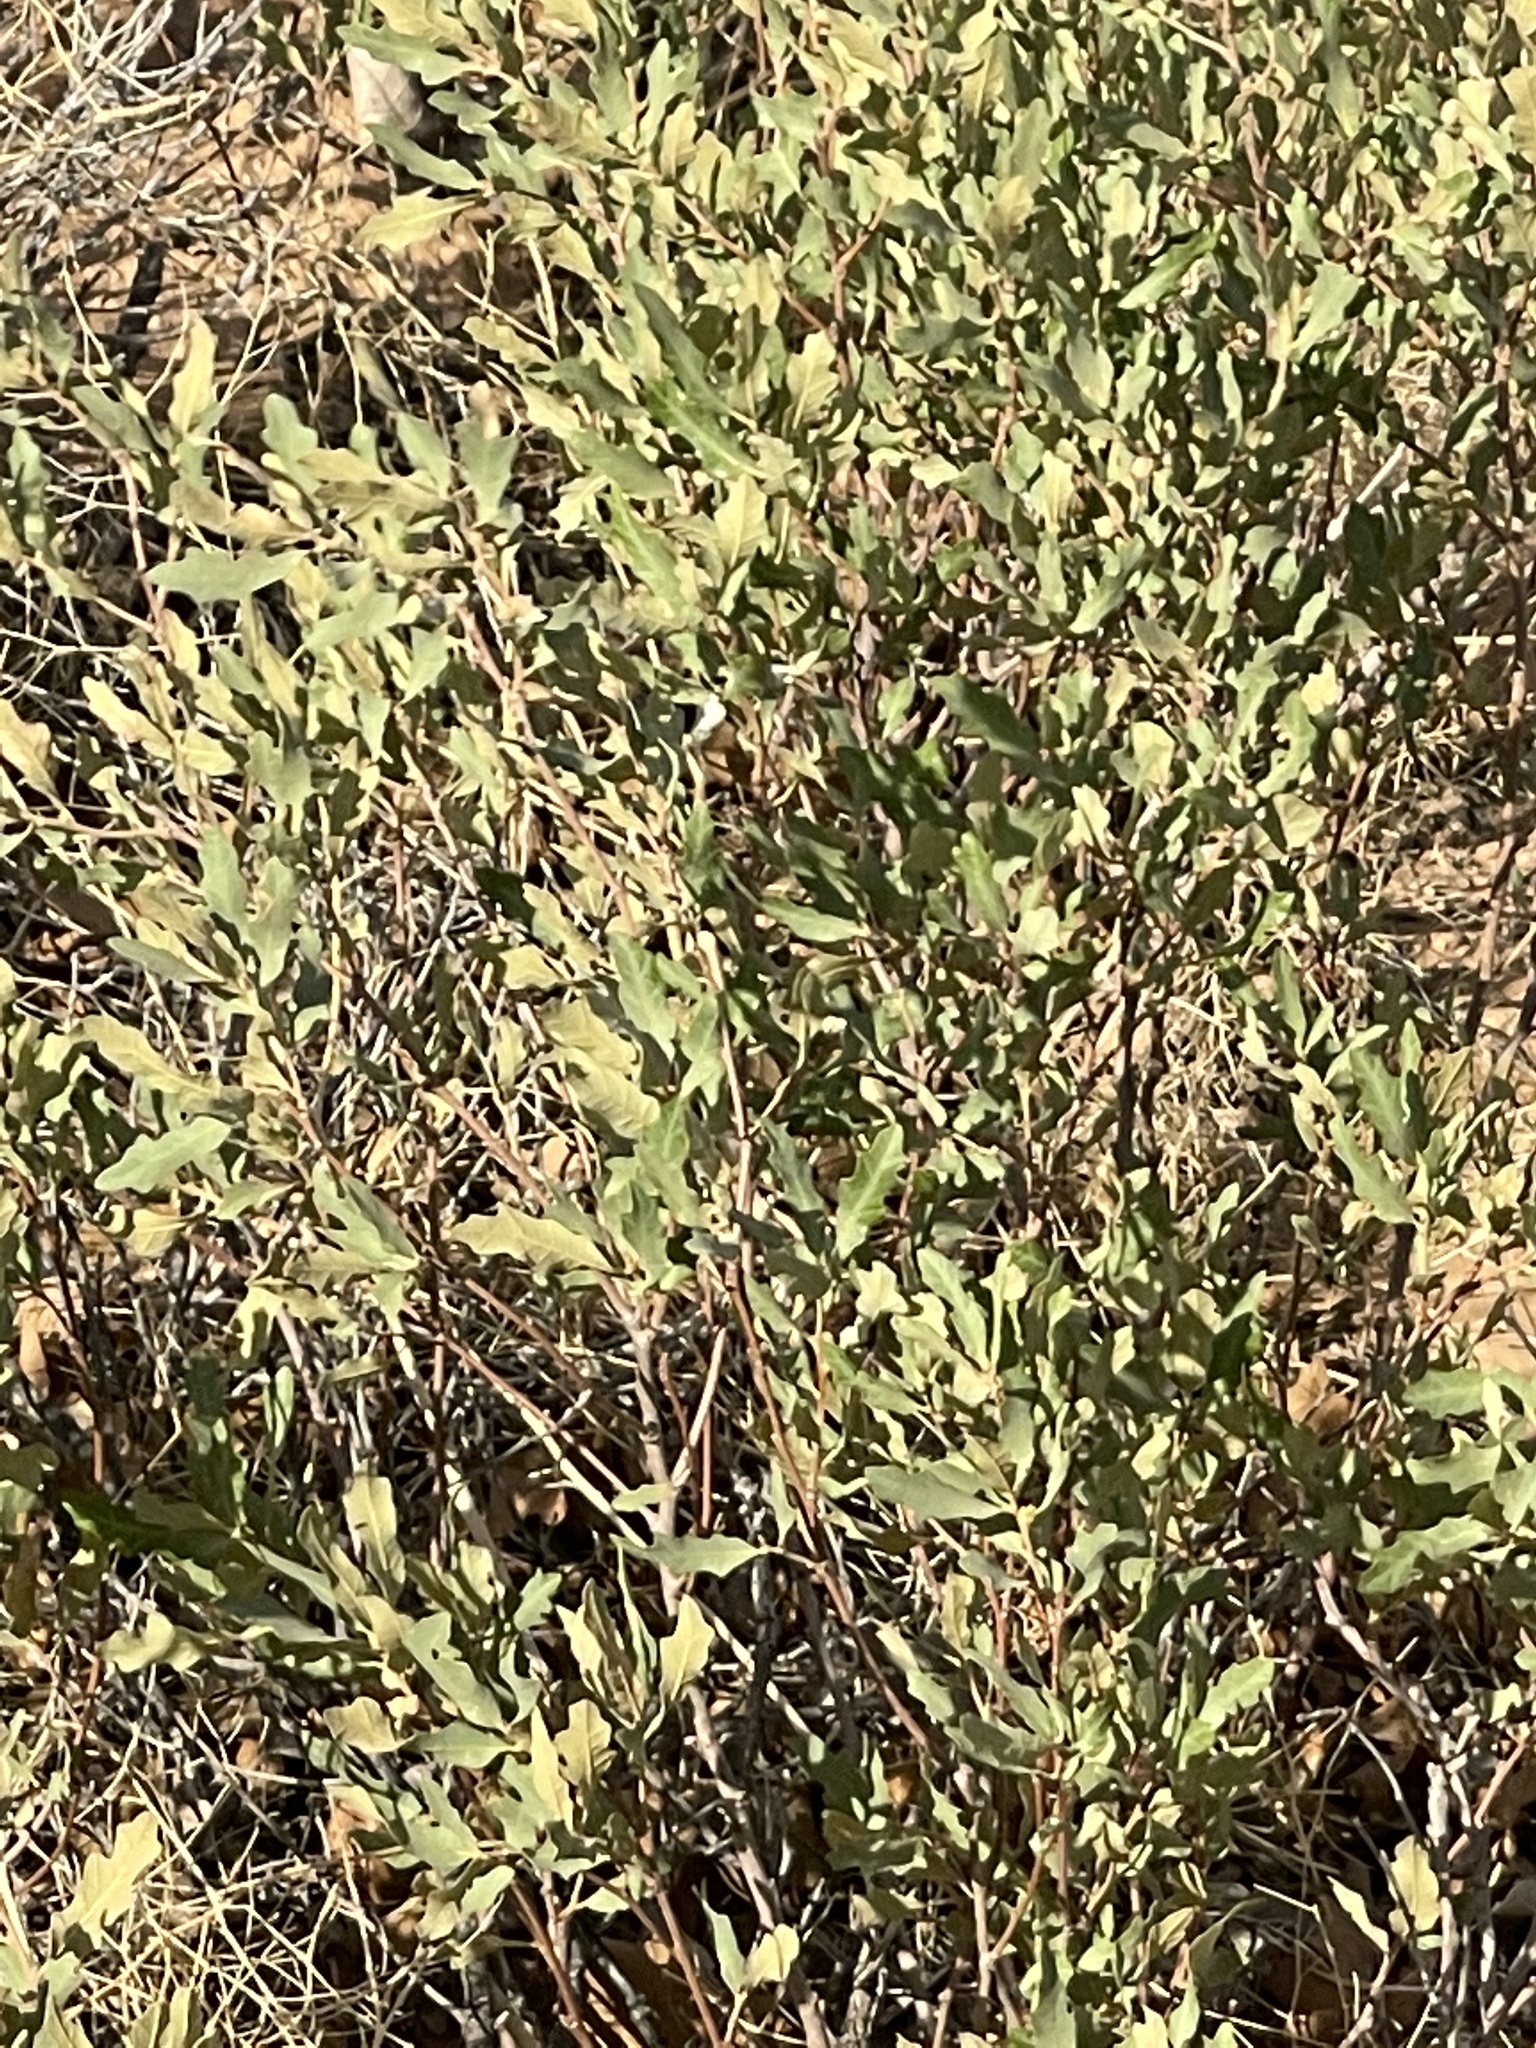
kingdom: Plantae
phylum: Tracheophyta
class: Magnoliopsida
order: Fagales
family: Fagaceae
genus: Quercus
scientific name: Quercus havardii
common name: Shinnery oak
